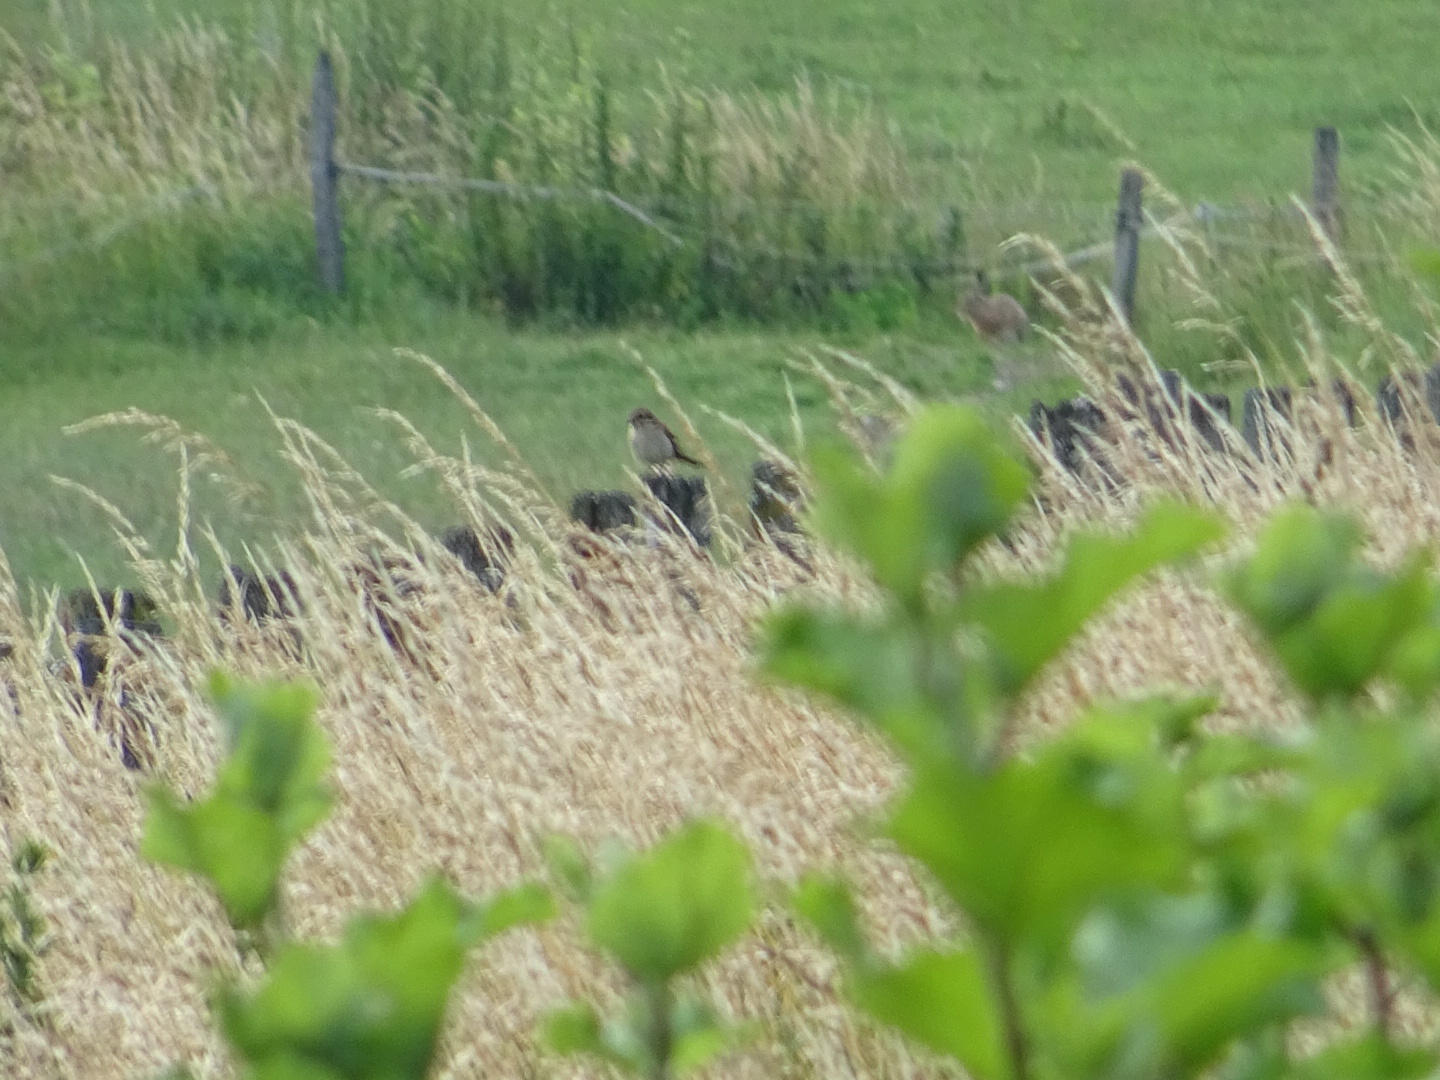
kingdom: Animalia
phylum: Chordata
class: Aves
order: Passeriformes
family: Laniidae
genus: Lanius
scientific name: Lanius collurio
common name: Red-backed shrike
